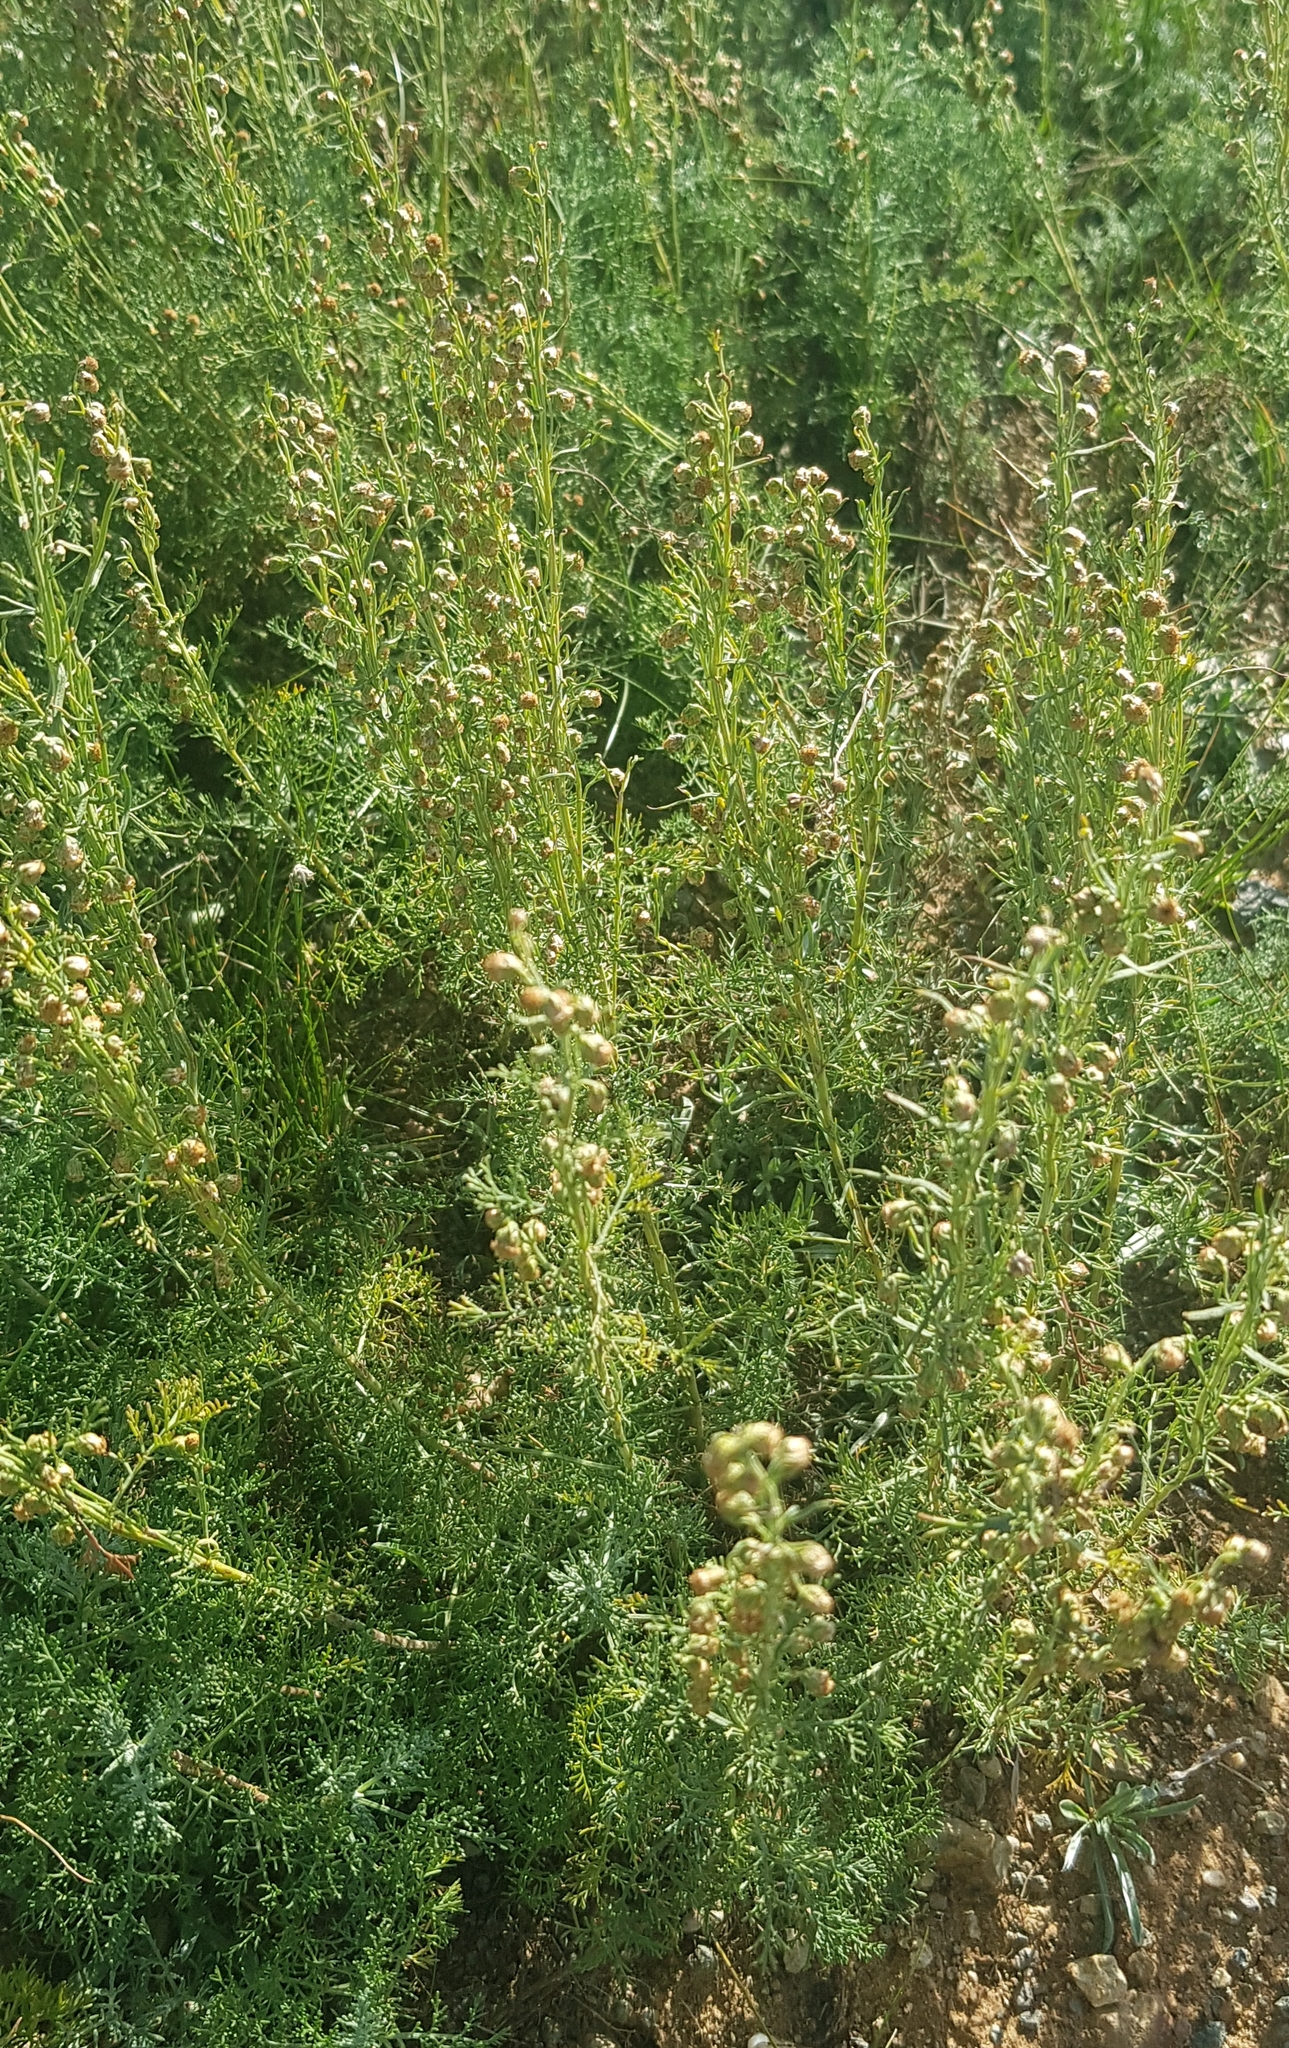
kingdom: Plantae
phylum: Tracheophyta
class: Magnoliopsida
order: Asterales
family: Asteraceae
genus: Artemisia
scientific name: Artemisia adamsii
